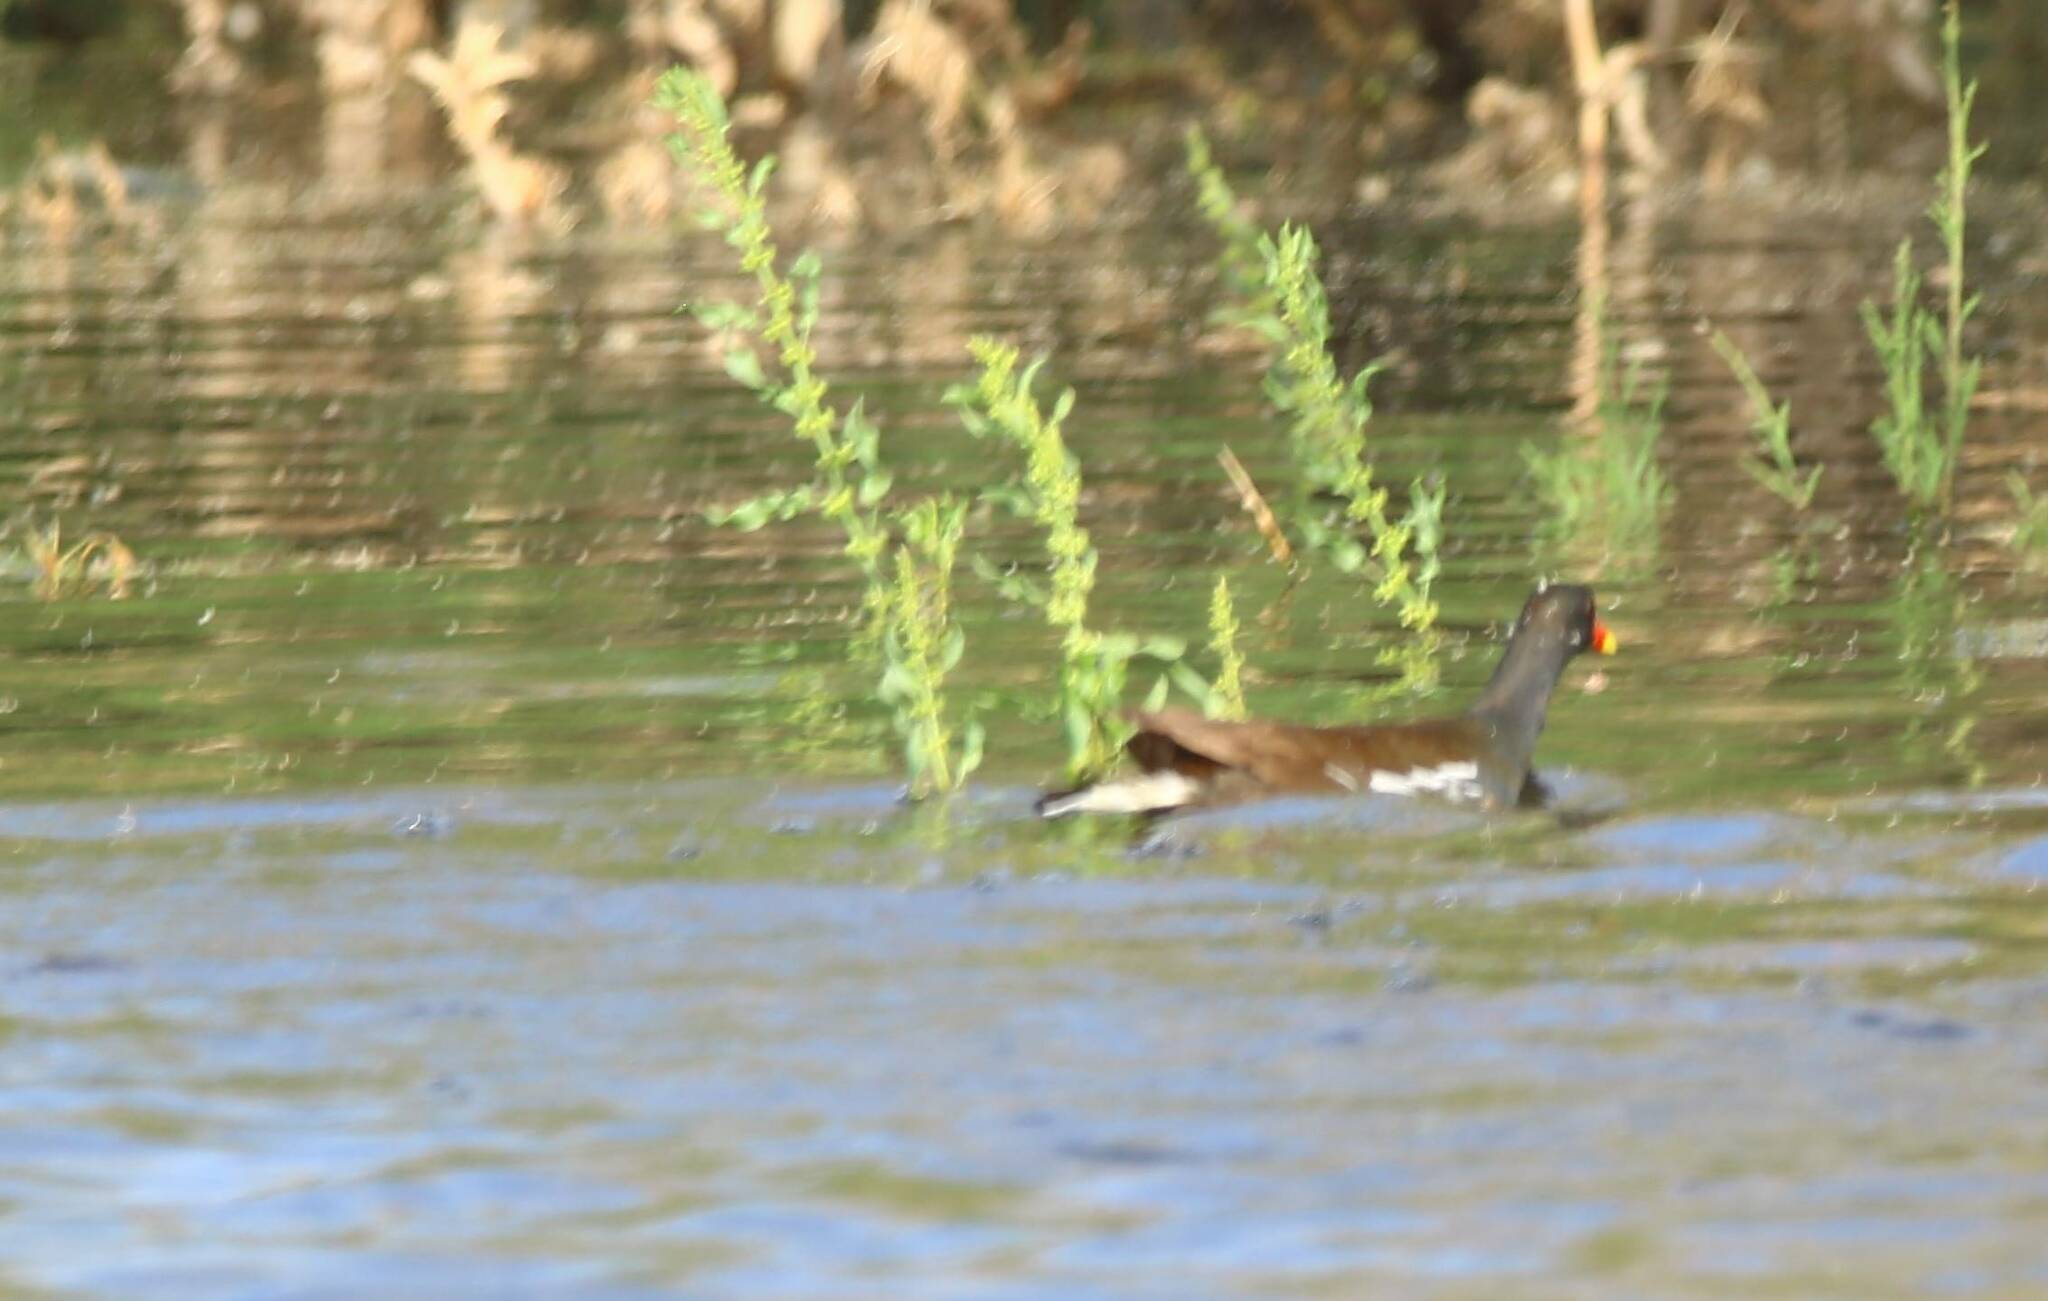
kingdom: Animalia
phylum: Chordata
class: Aves
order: Gruiformes
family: Rallidae
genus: Gallinula
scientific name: Gallinula chloropus
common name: Common moorhen
